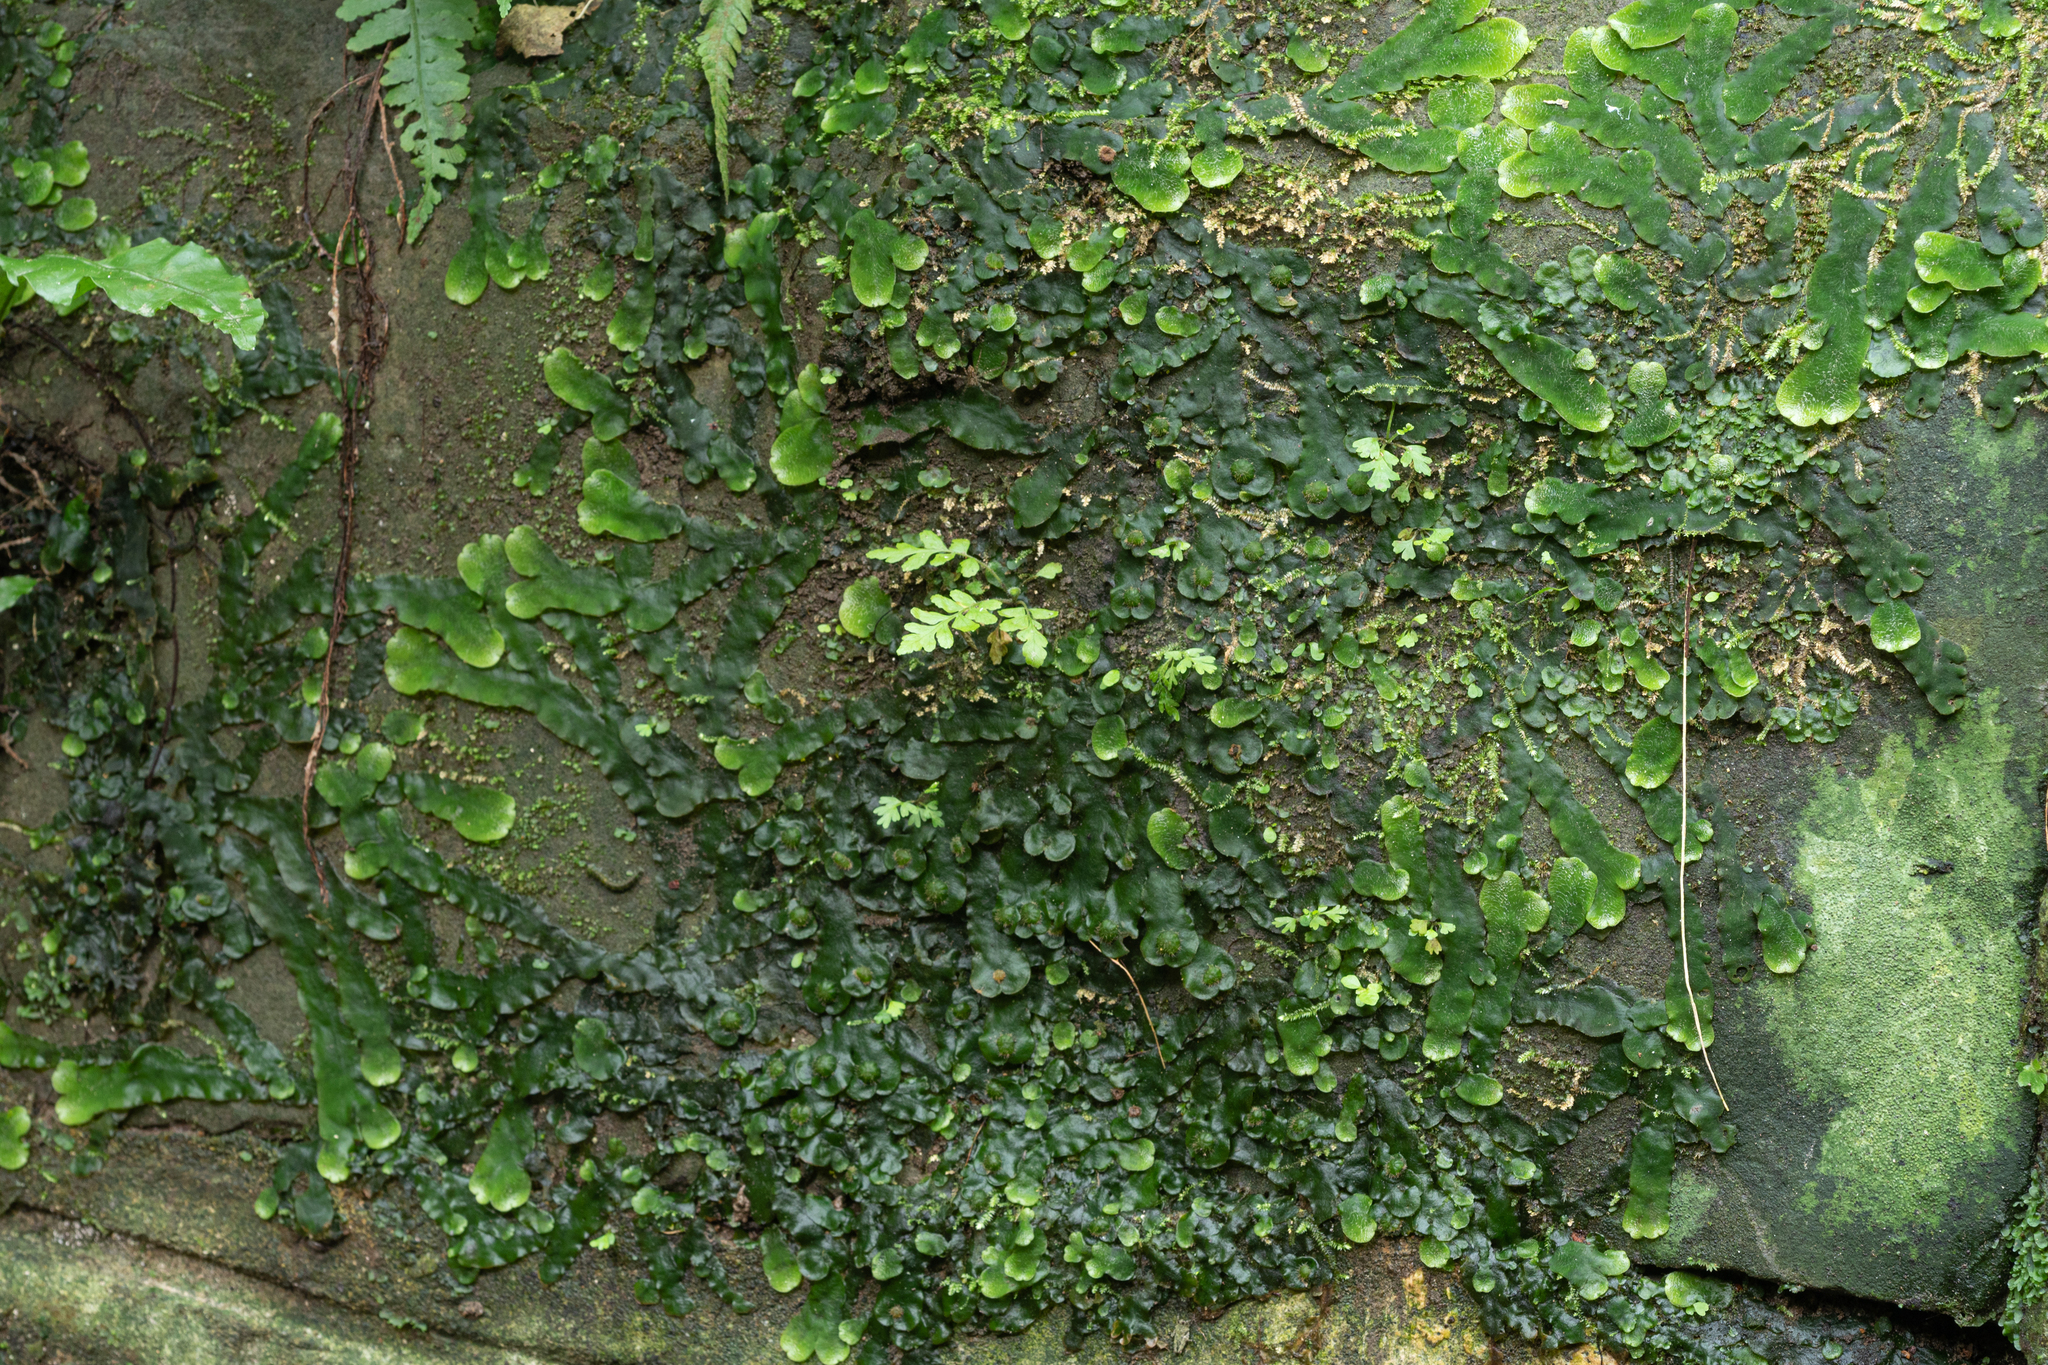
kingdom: Plantae
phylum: Marchantiophyta
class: Marchantiopsida
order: Marchantiales
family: Dumortieraceae
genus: Dumortiera
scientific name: Dumortiera hirsuta
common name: Dumortier's liverwort
